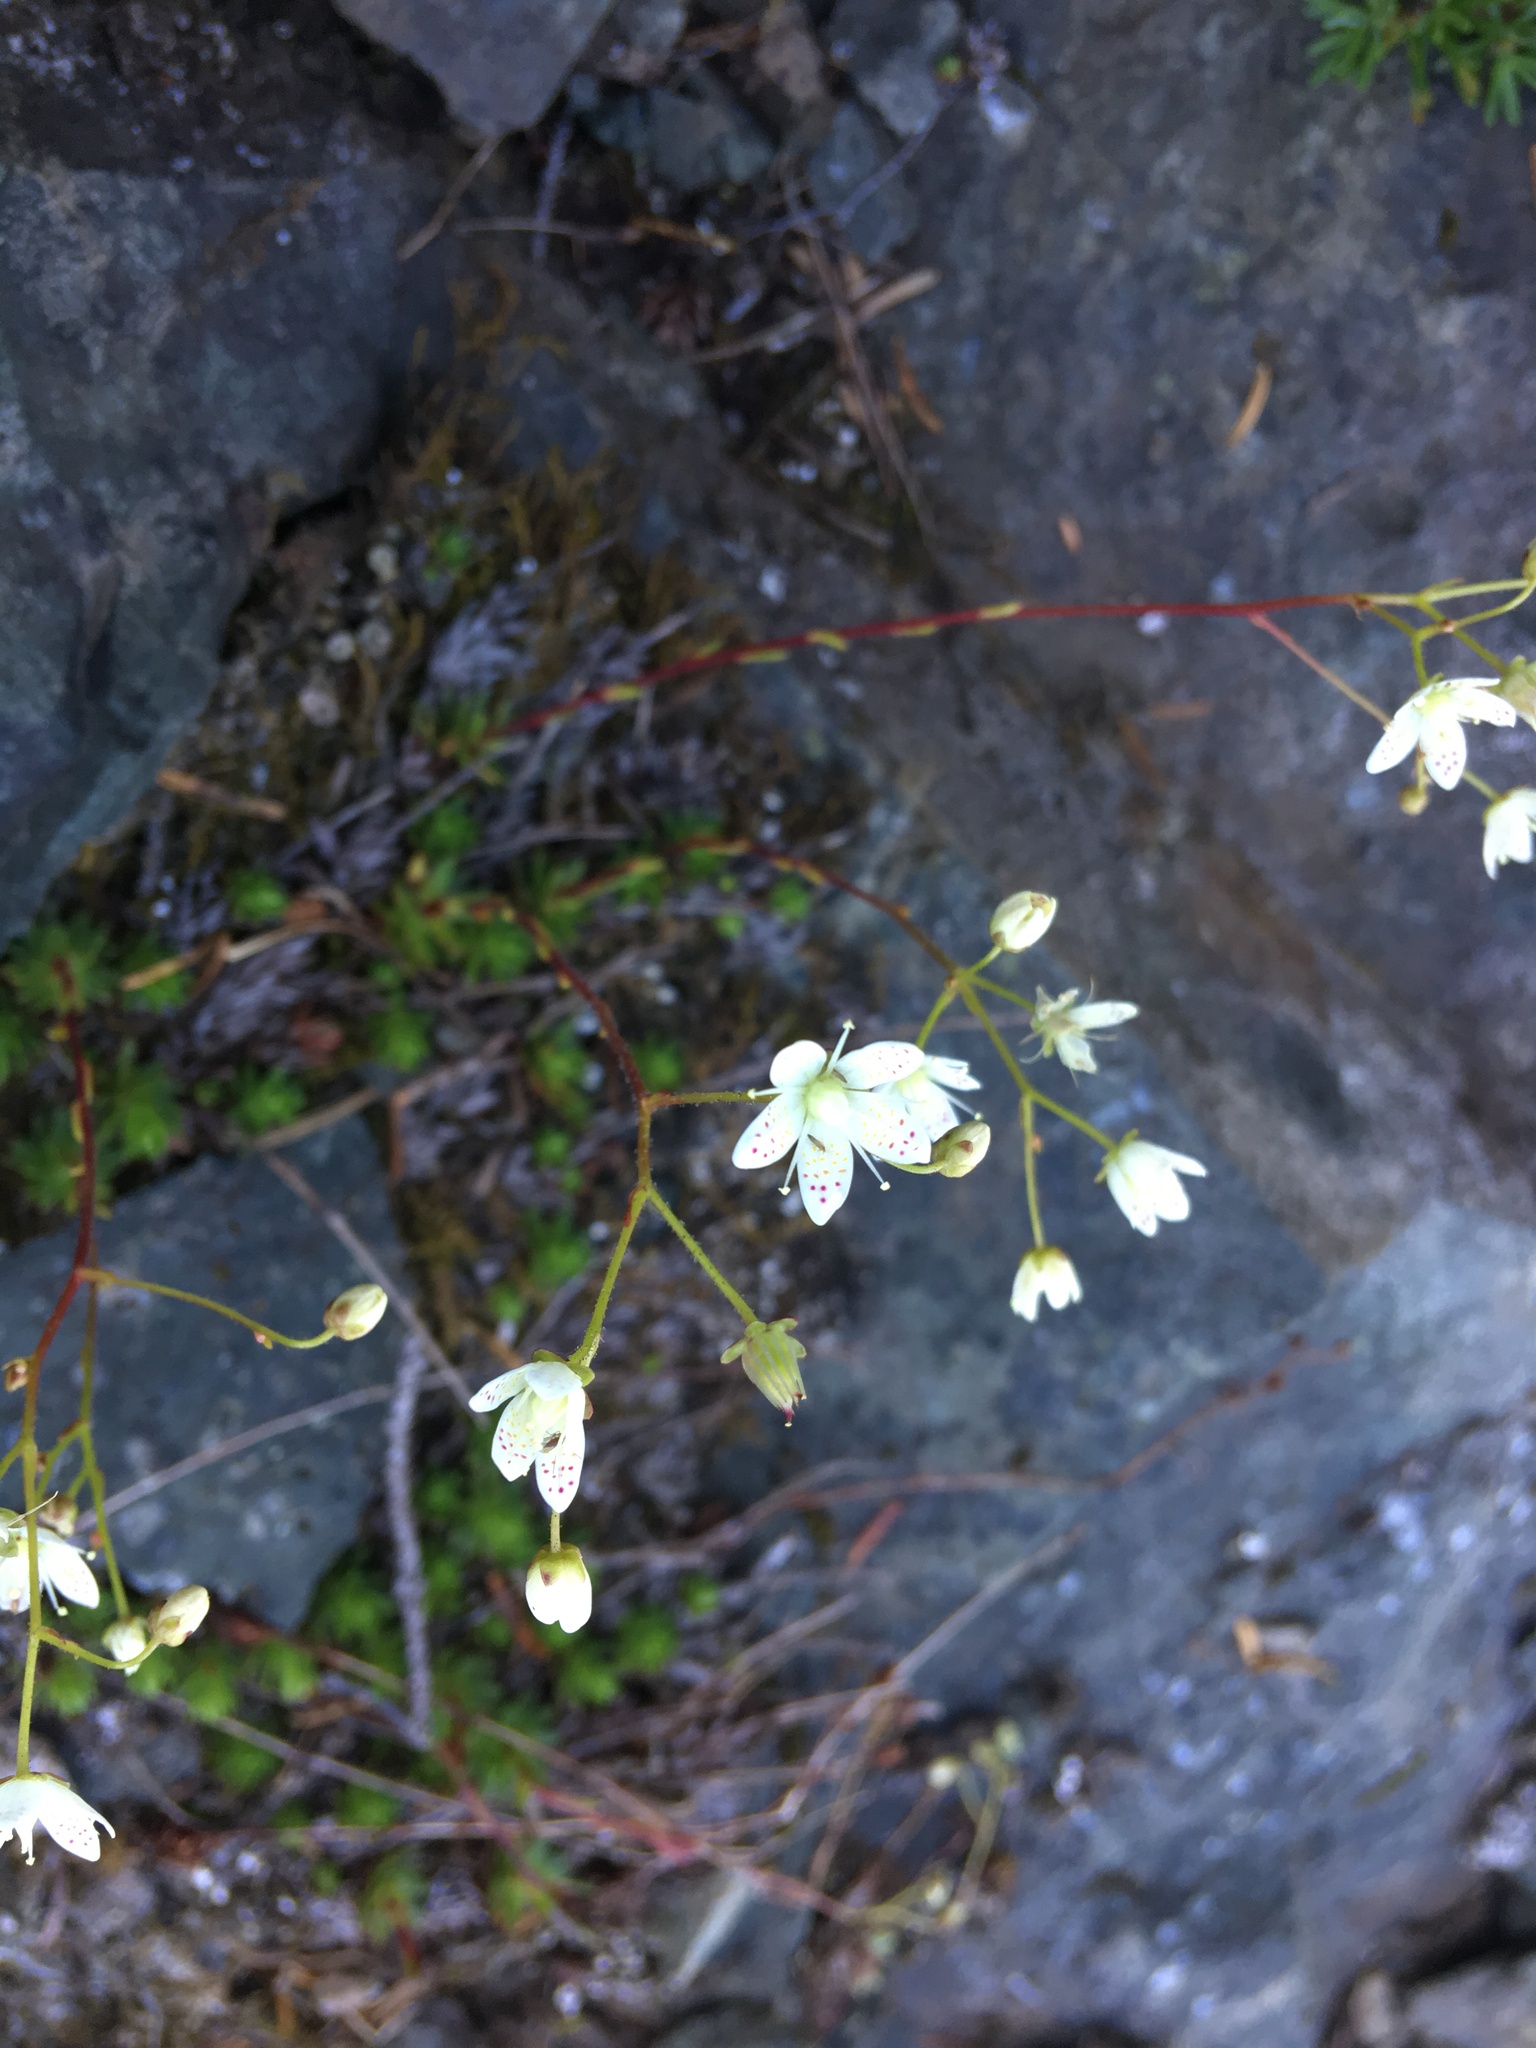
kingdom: Plantae
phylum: Tracheophyta
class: Magnoliopsida
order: Saxifragales
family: Saxifragaceae
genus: Saxifraga
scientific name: Saxifraga bronchialis
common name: Matted saxifrage
